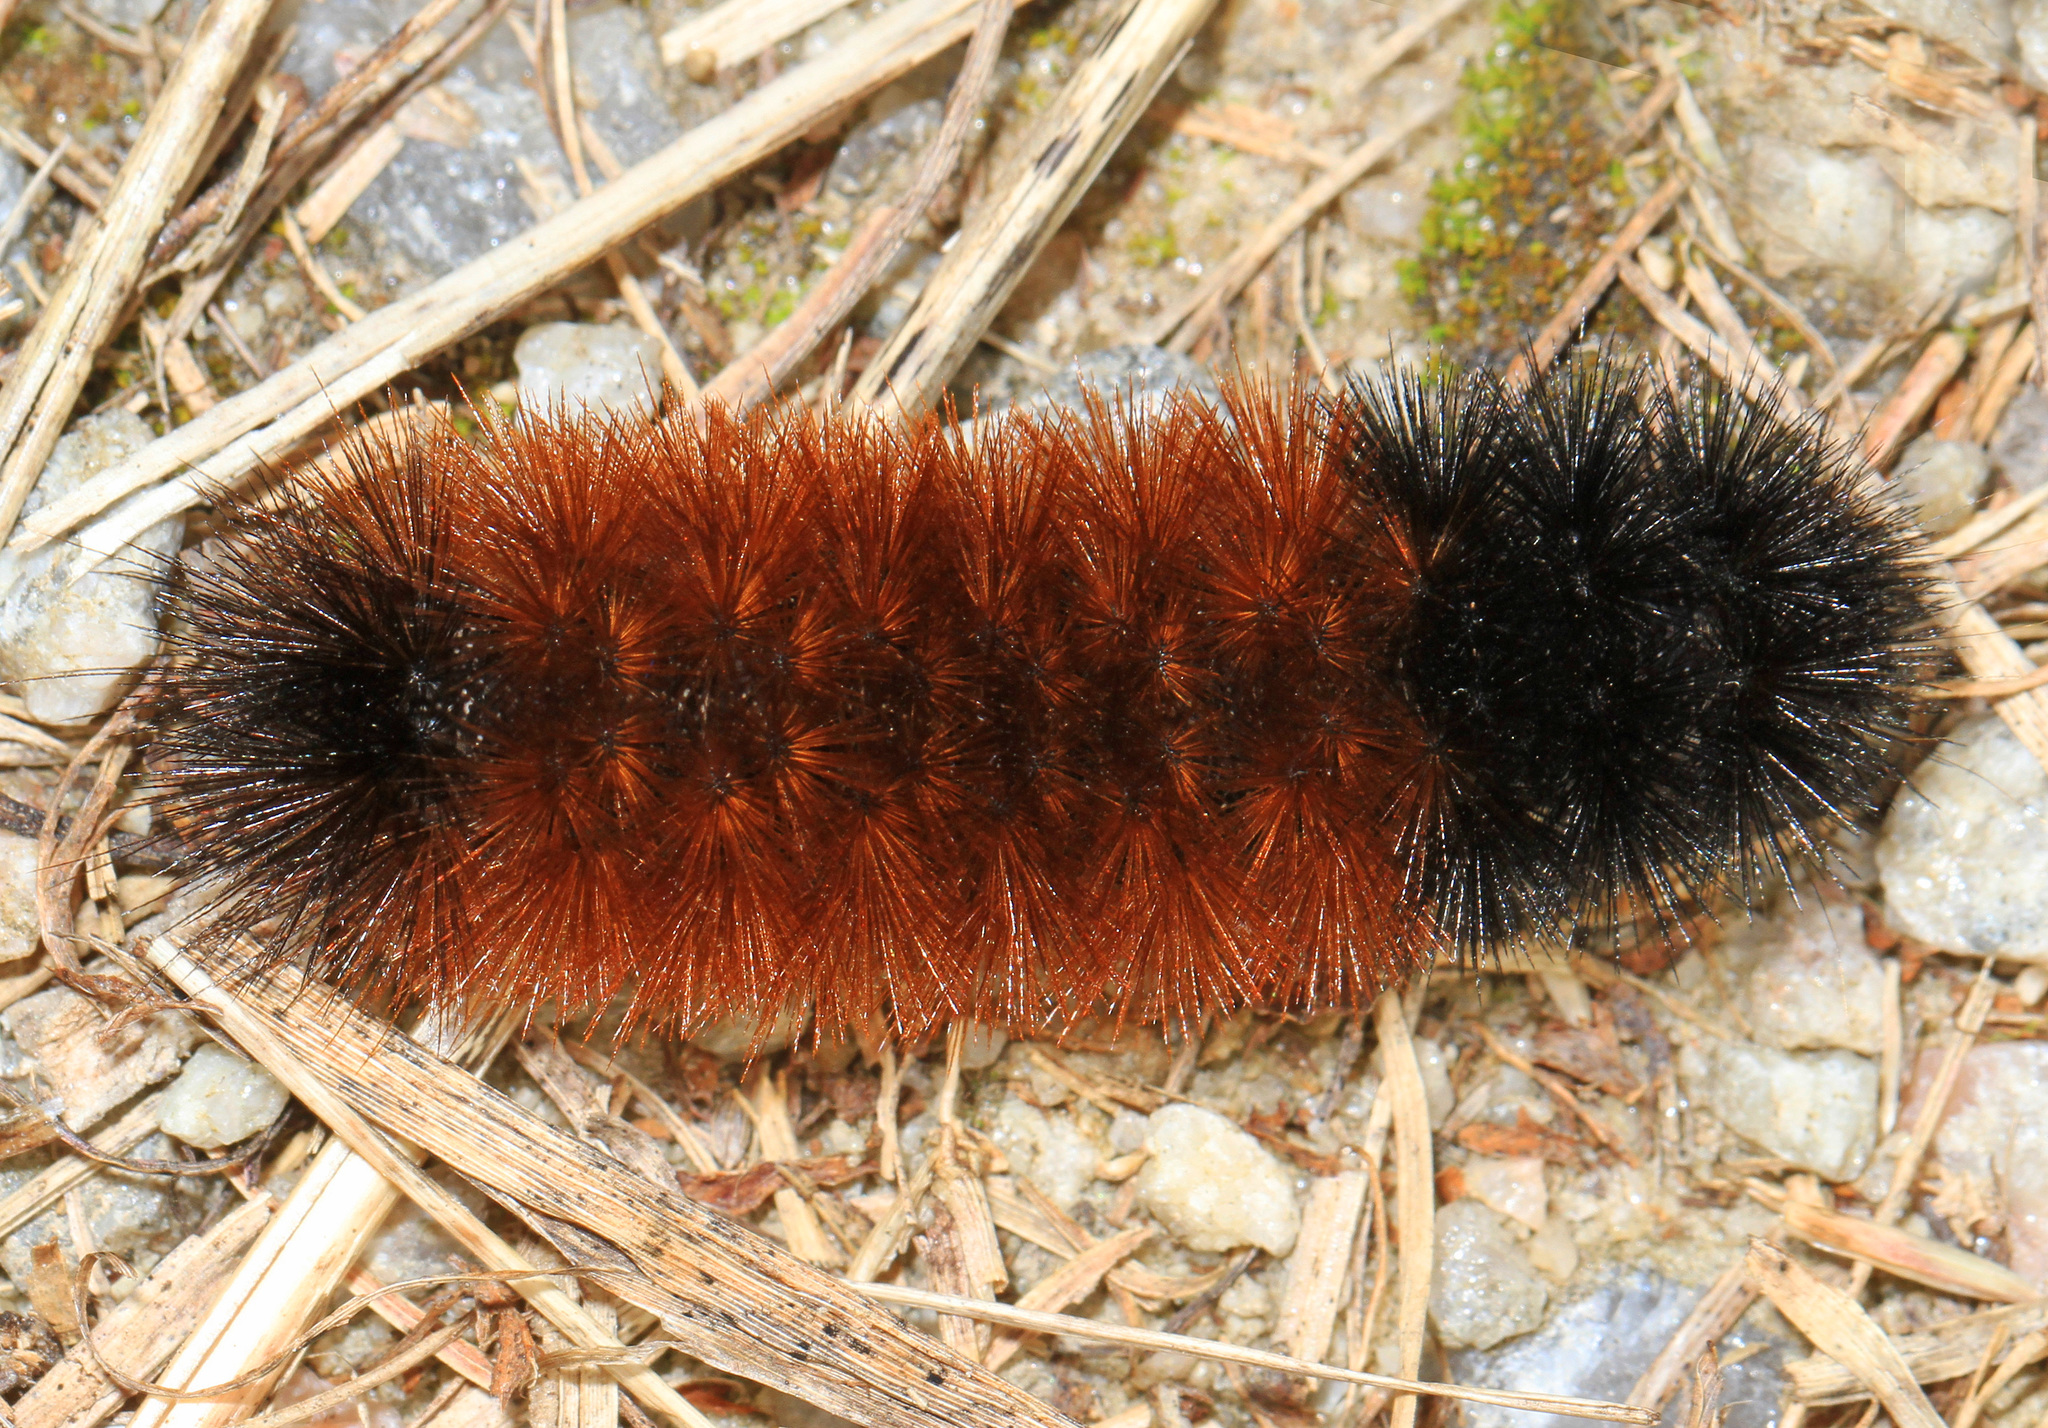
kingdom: Animalia
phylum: Arthropoda
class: Insecta
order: Lepidoptera
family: Erebidae
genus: Pyrrharctia
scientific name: Pyrrharctia isabella
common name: Isabella tiger moth
